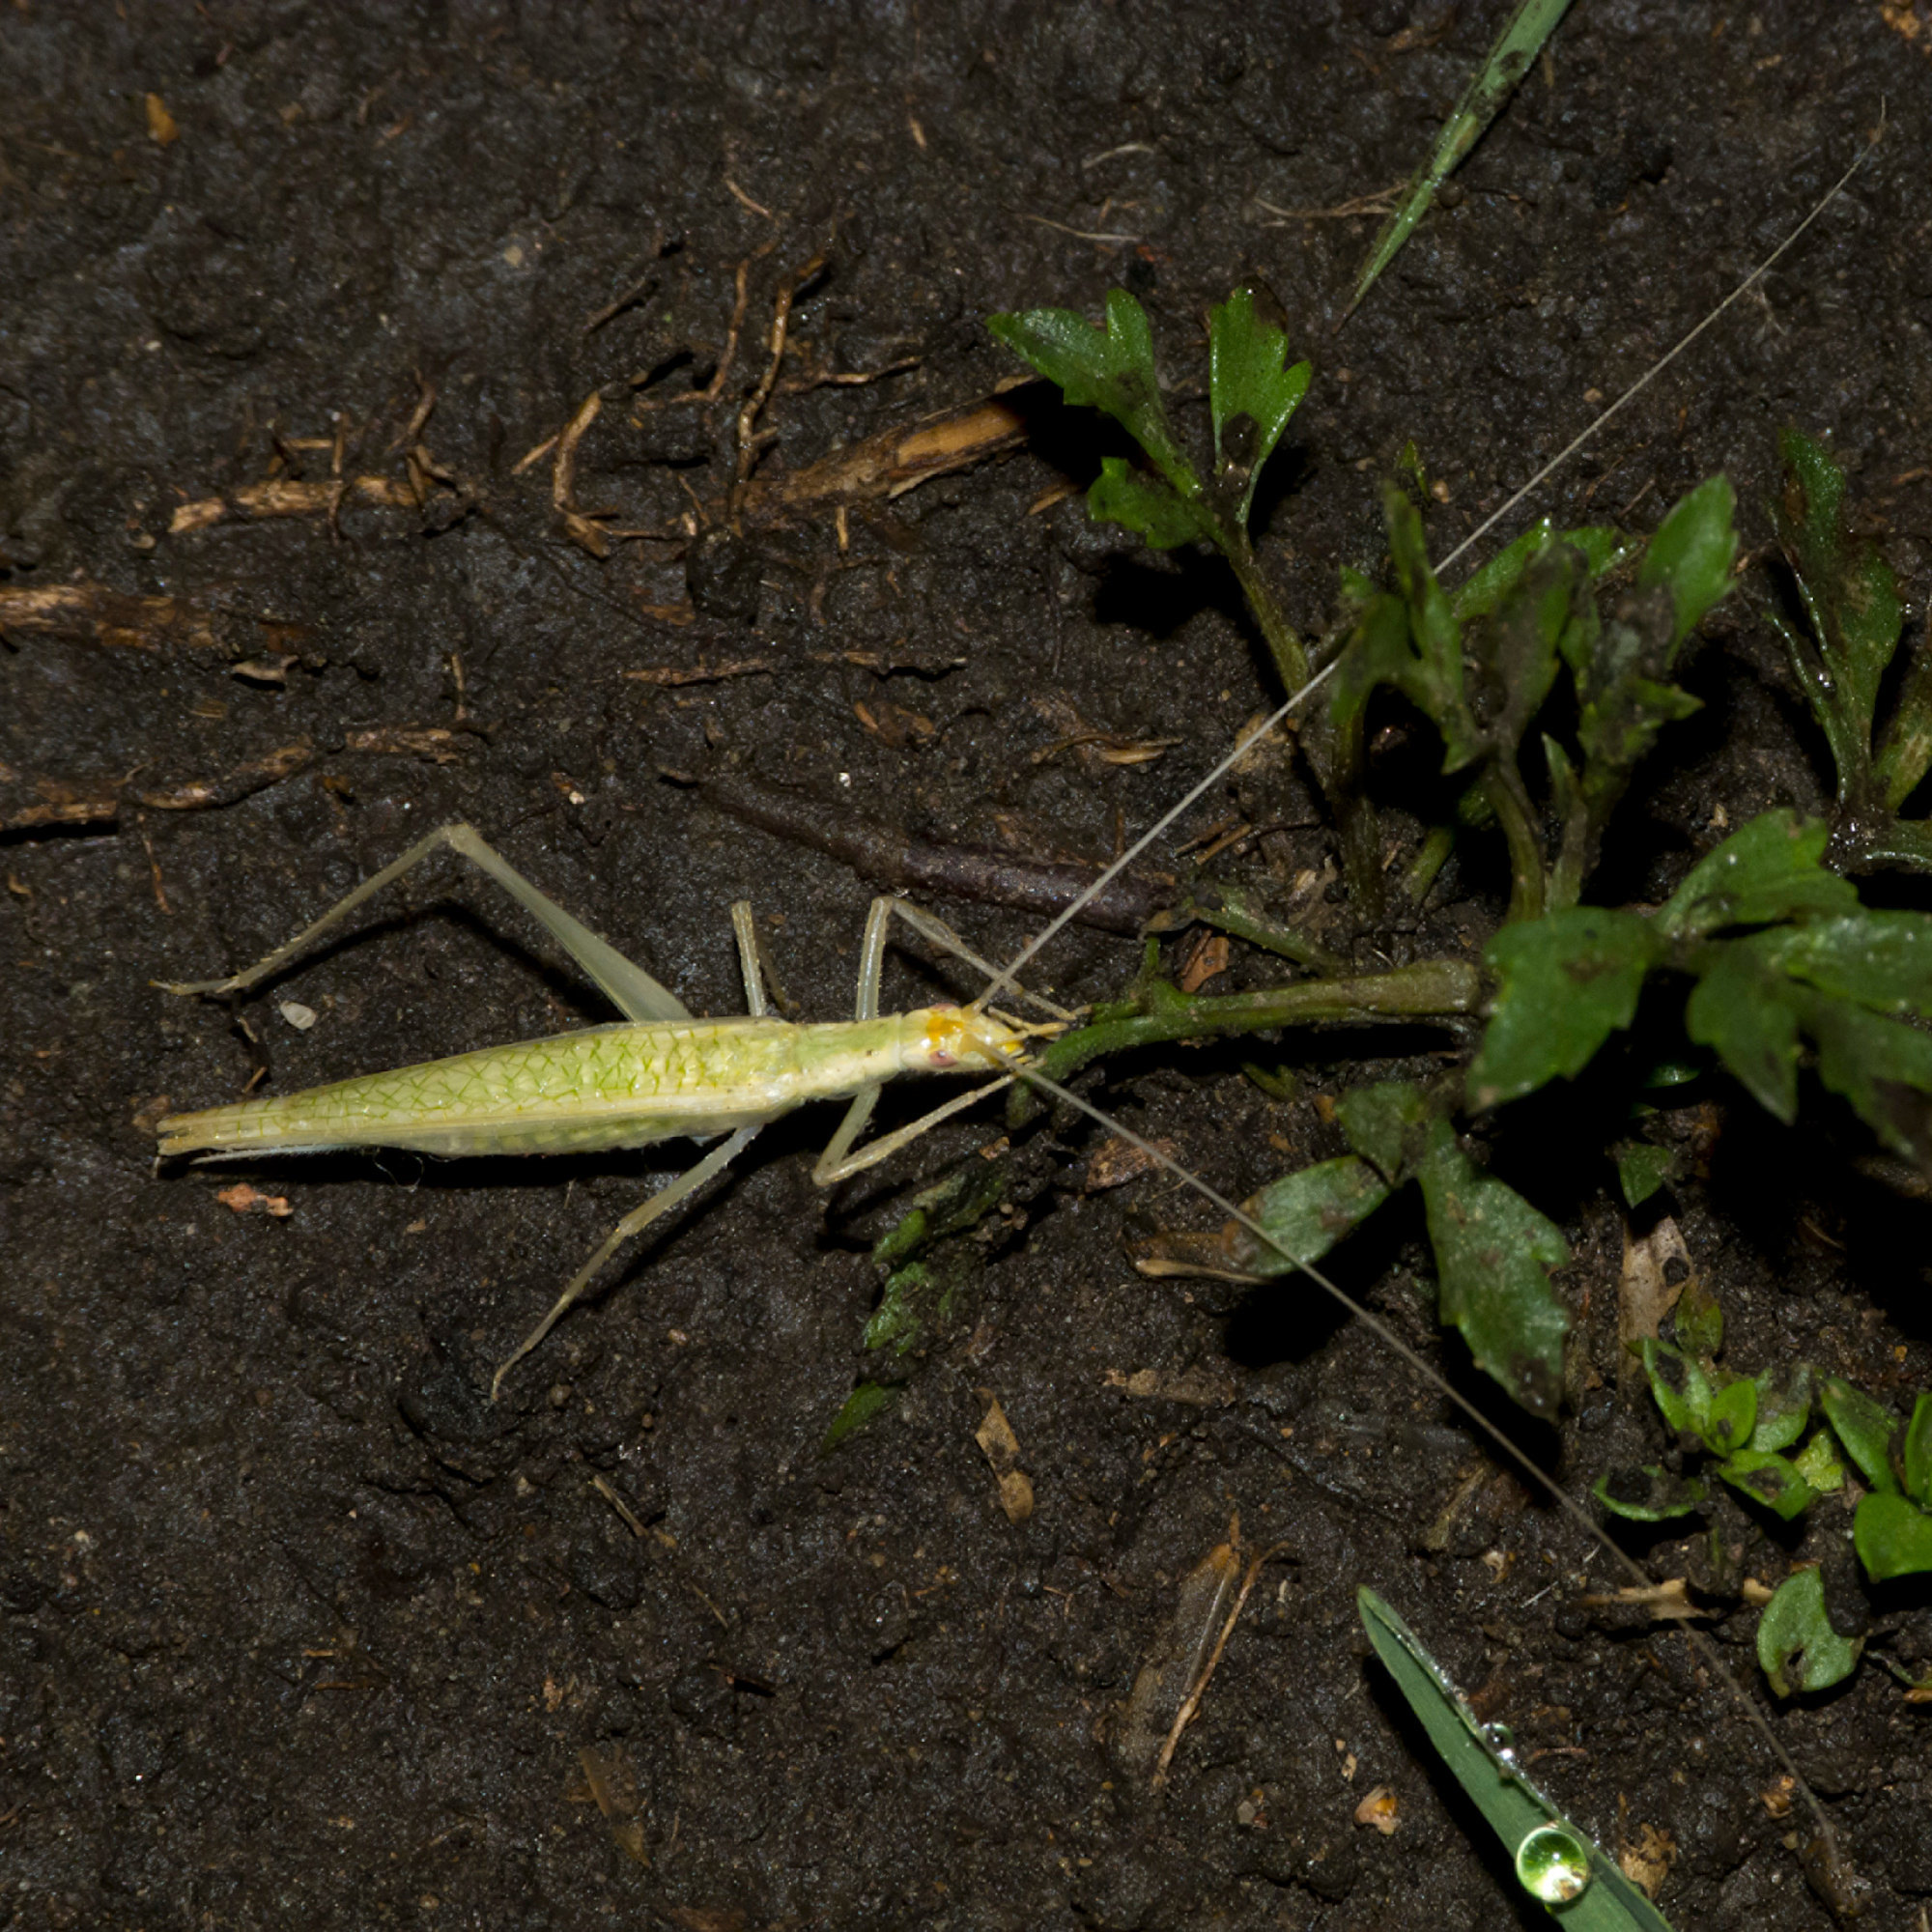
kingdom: Animalia
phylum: Arthropoda
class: Insecta
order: Orthoptera
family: Gryllidae
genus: Oecanthus
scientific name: Oecanthus leptogrammus
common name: Thin-lined tree cricket
